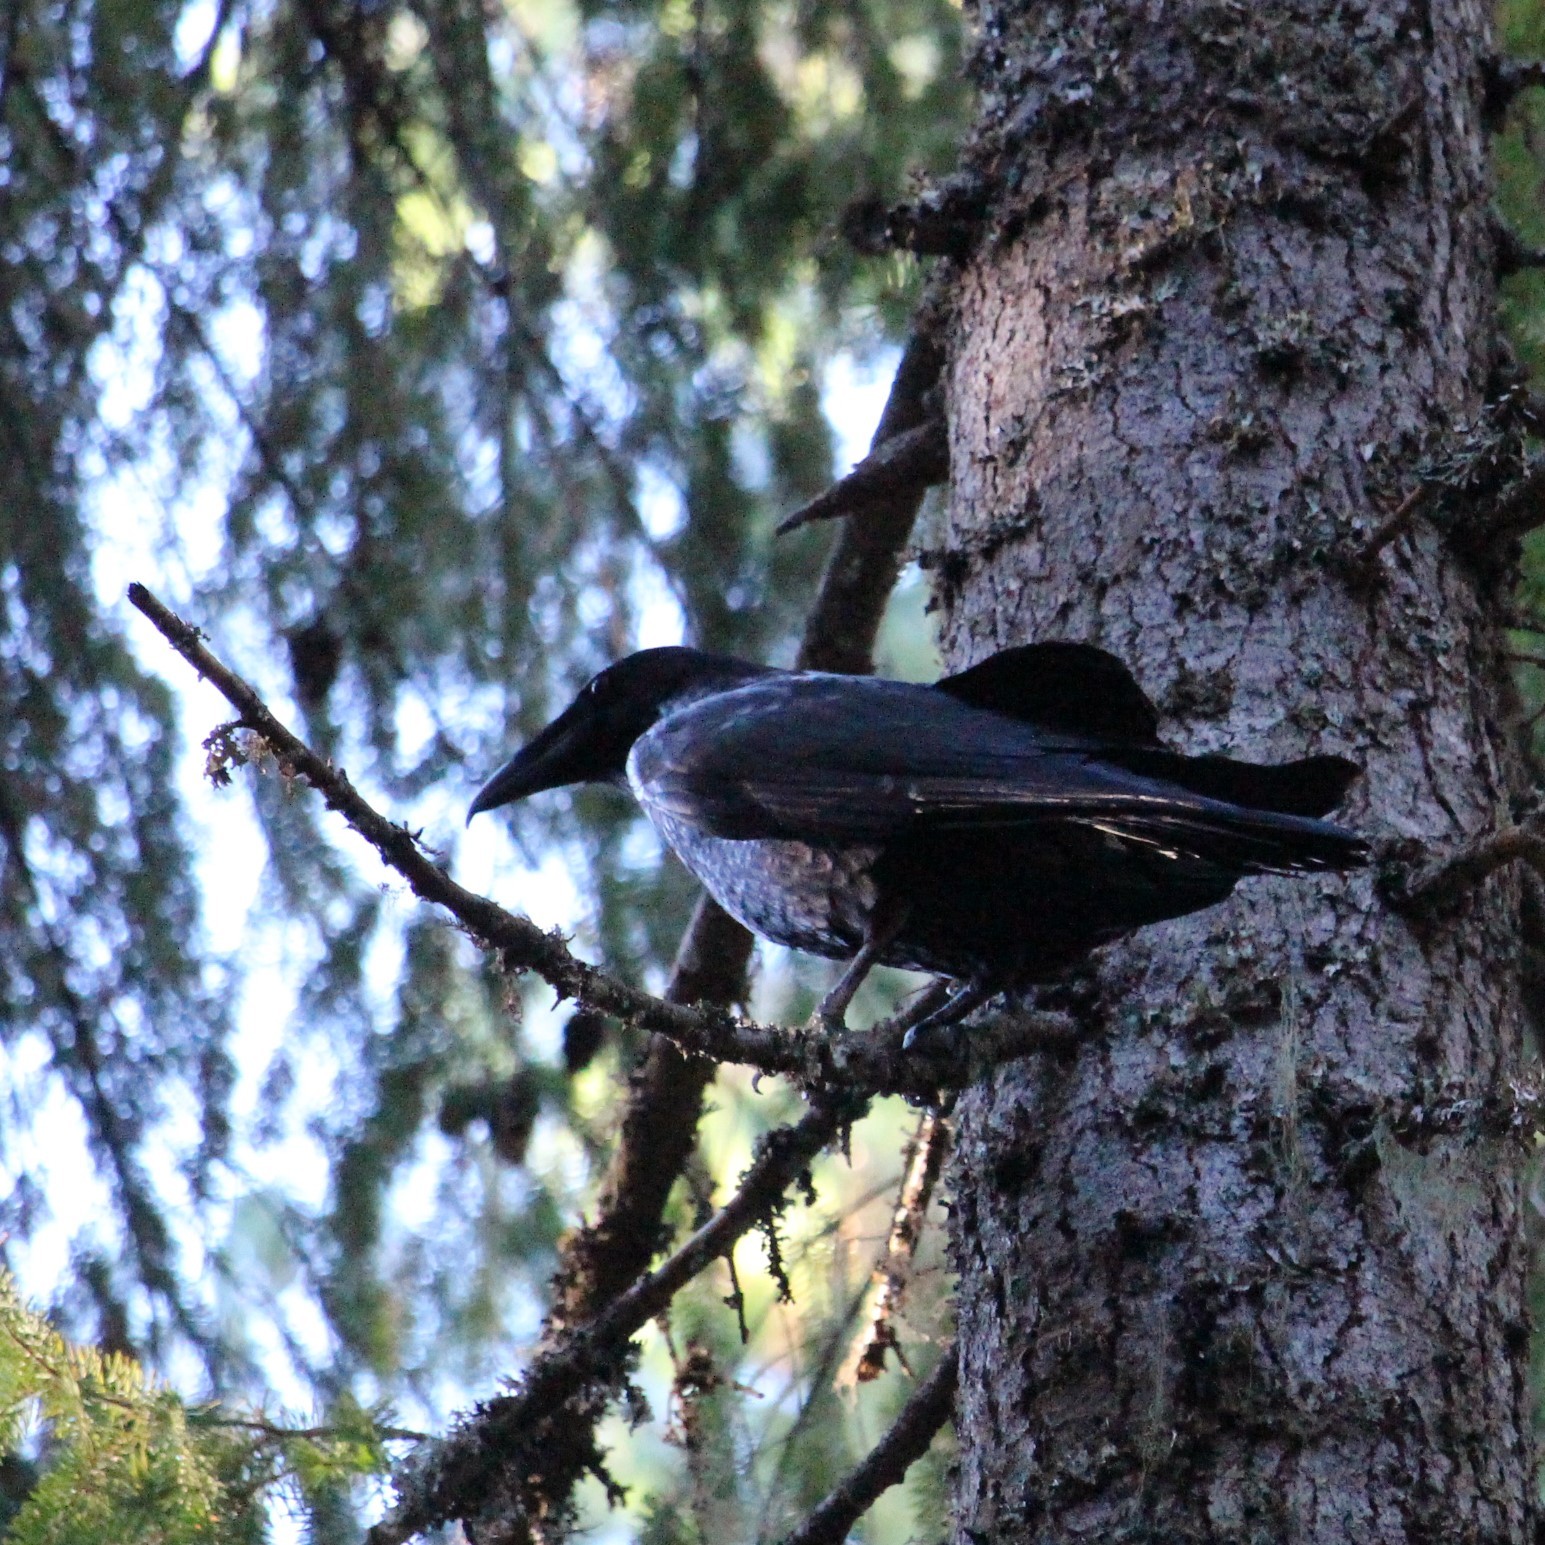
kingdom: Animalia
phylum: Chordata
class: Aves
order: Passeriformes
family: Corvidae
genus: Corvus
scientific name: Corvus corax
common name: Common raven
